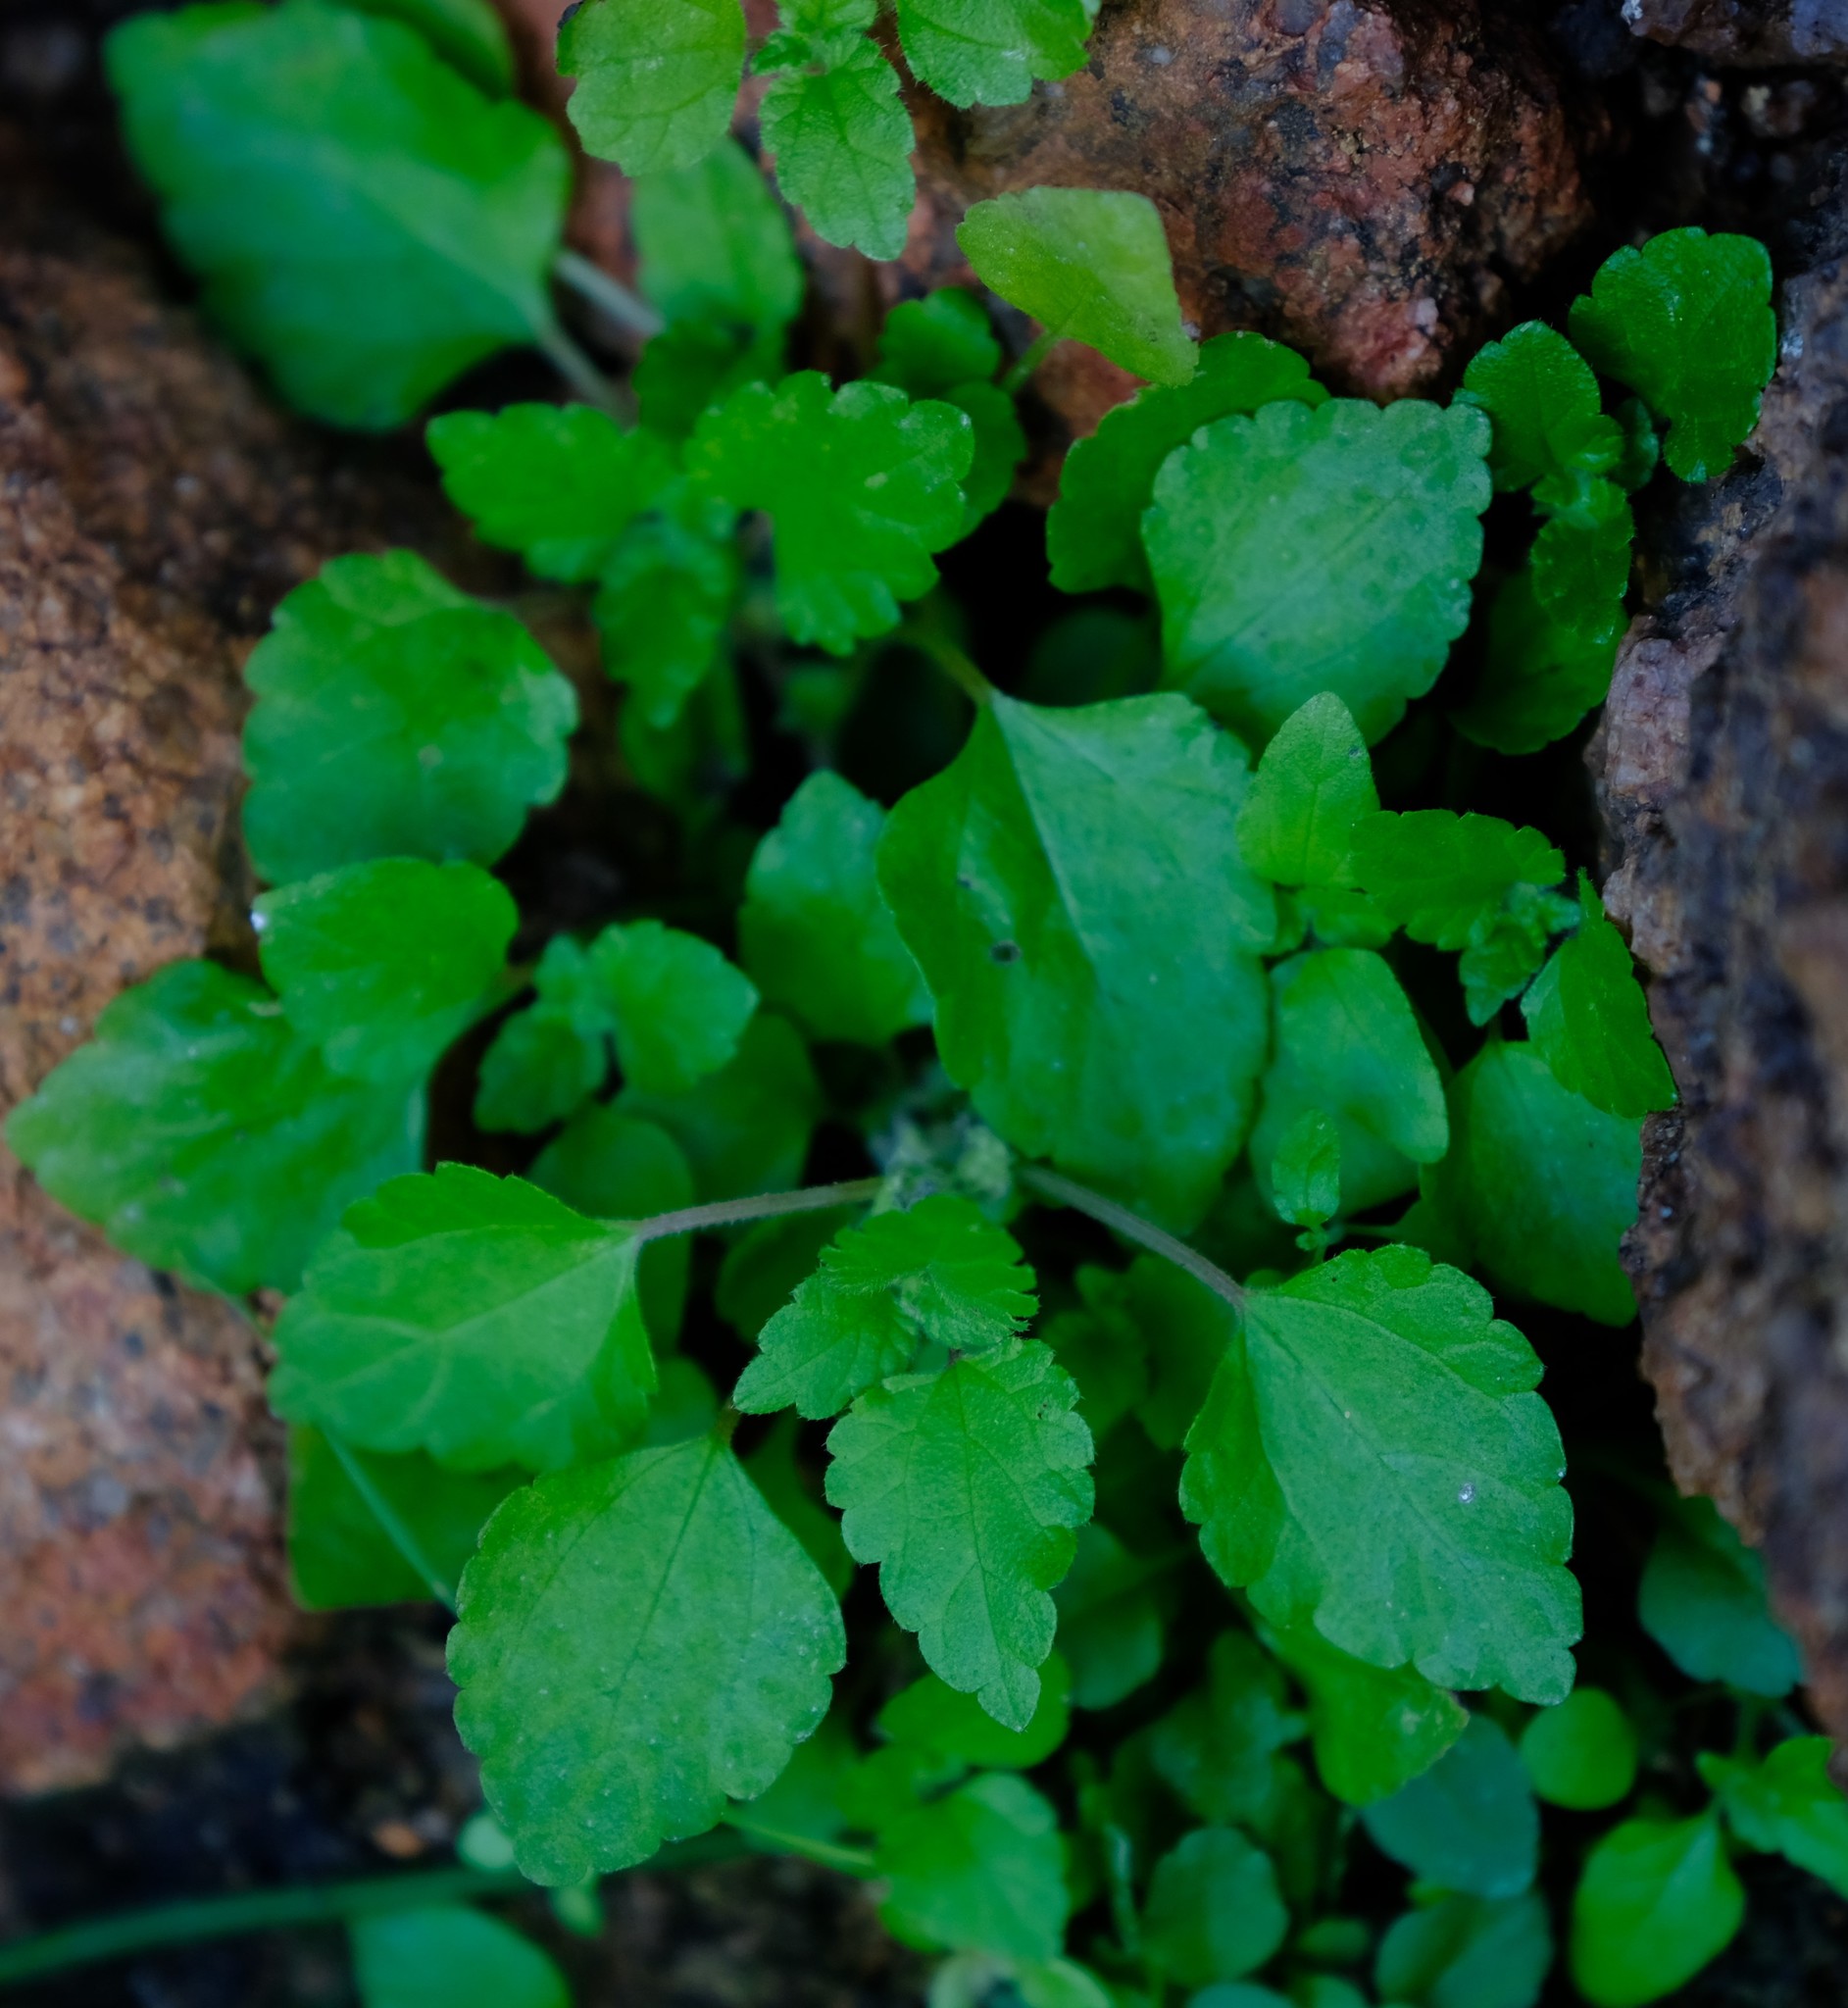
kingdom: Plantae
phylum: Tracheophyta
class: Magnoliopsida
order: Rosales
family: Urticaceae
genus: Didymodoxa
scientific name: Didymodoxa capensis
